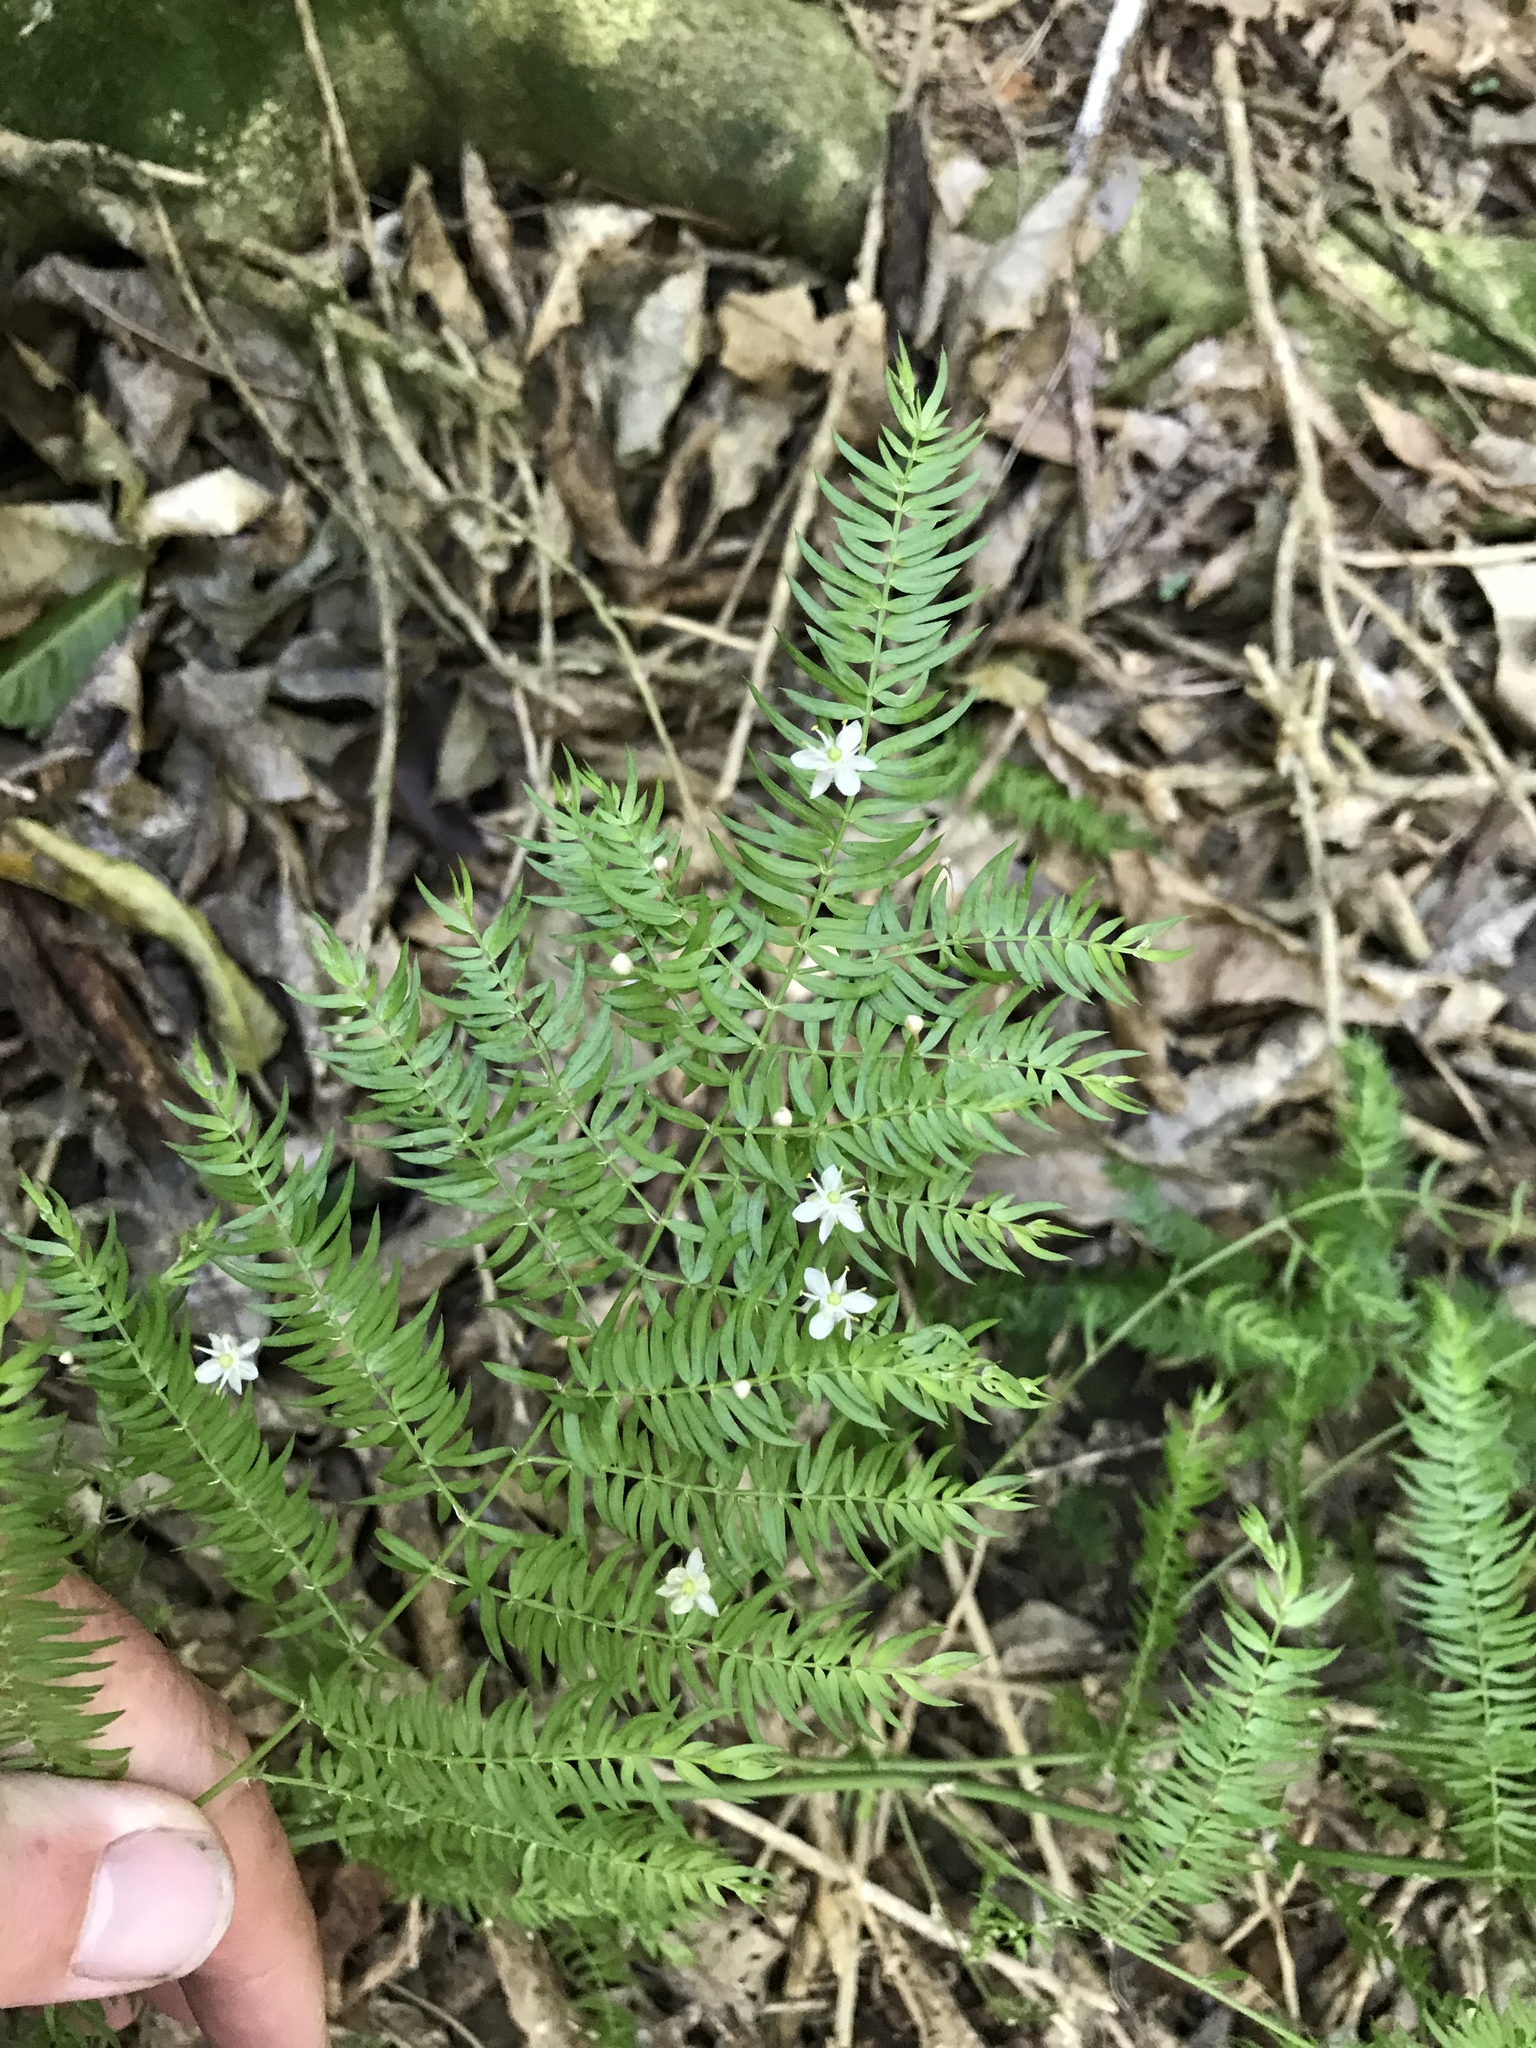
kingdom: Plantae
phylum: Tracheophyta
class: Liliopsida
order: Asparagales
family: Asparagaceae
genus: Asparagus
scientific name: Asparagus scandens
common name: Asparagus-fern
